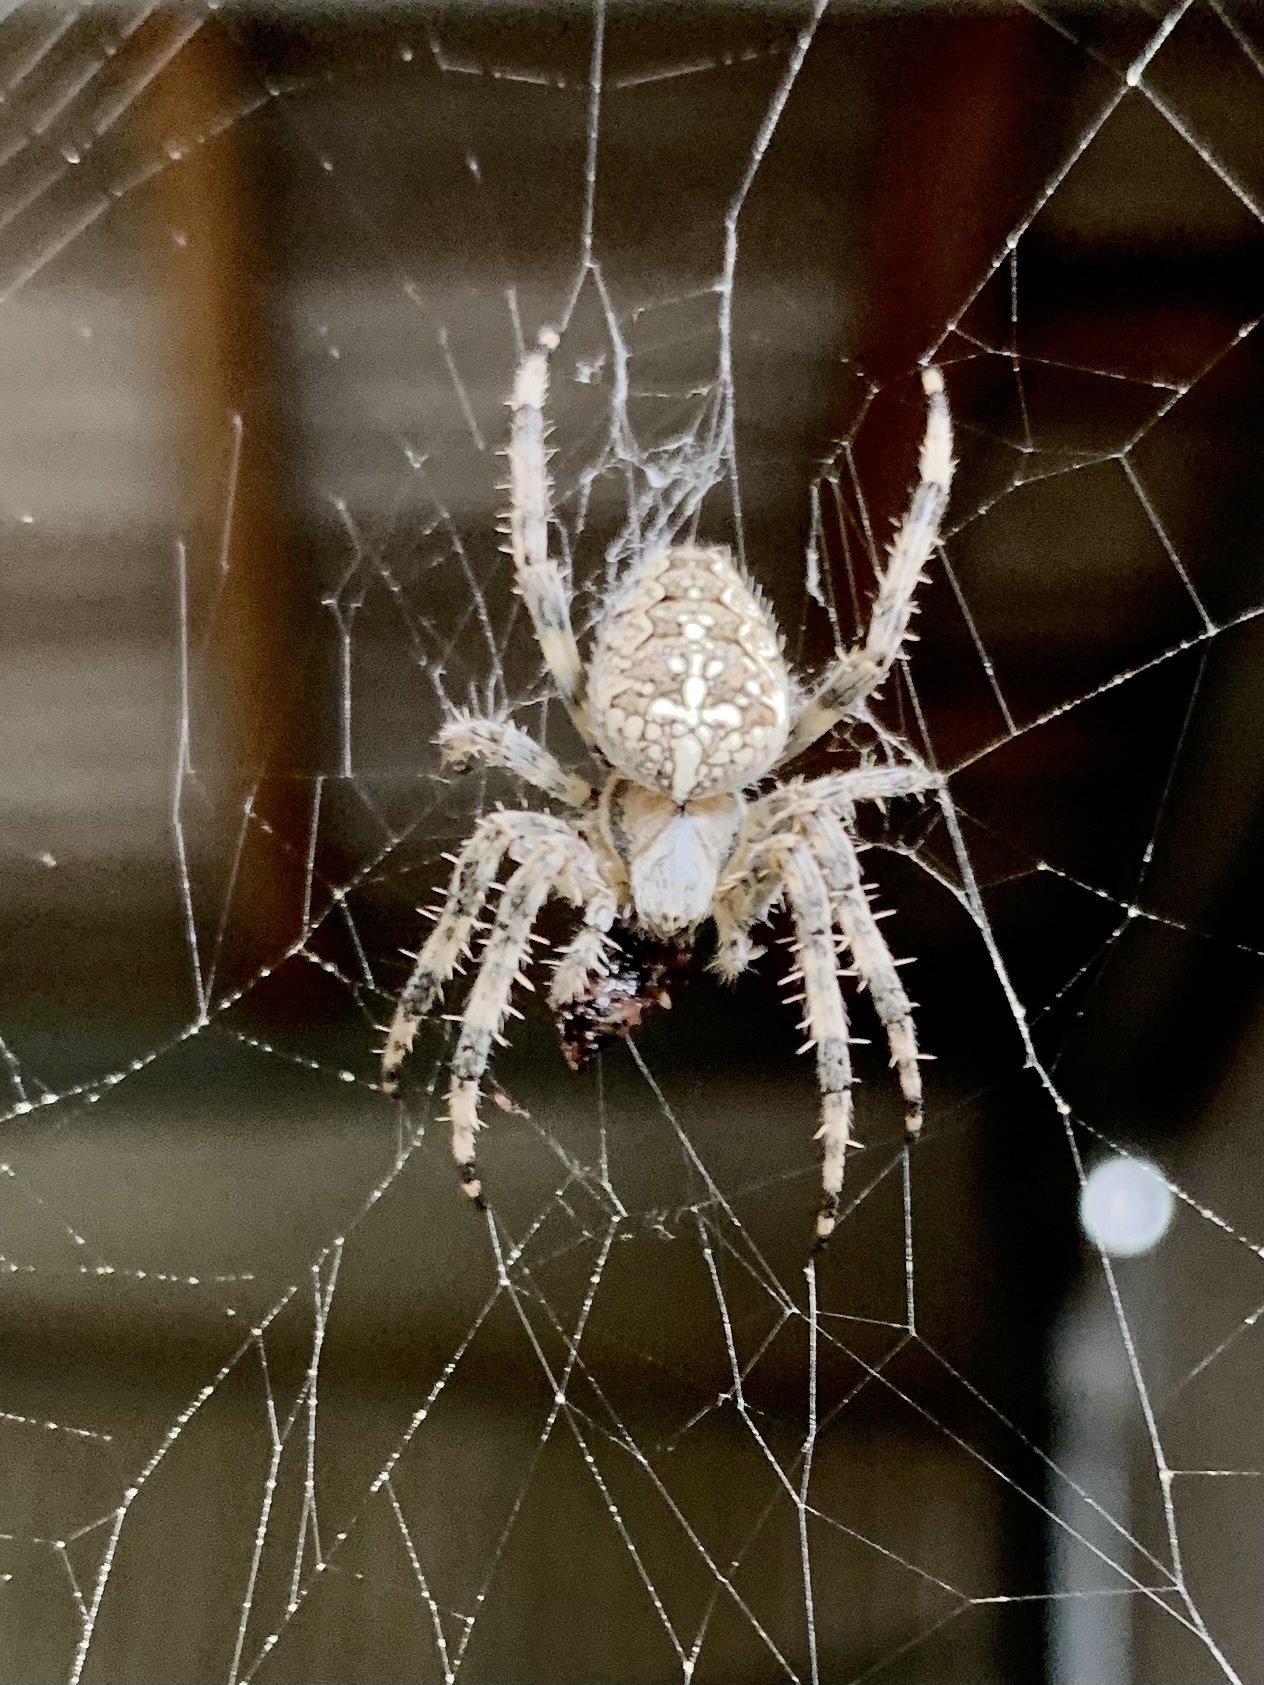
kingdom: Animalia
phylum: Arthropoda
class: Arachnida
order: Araneae
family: Araneidae
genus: Araneus
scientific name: Araneus diadematus
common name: Cross orbweaver
